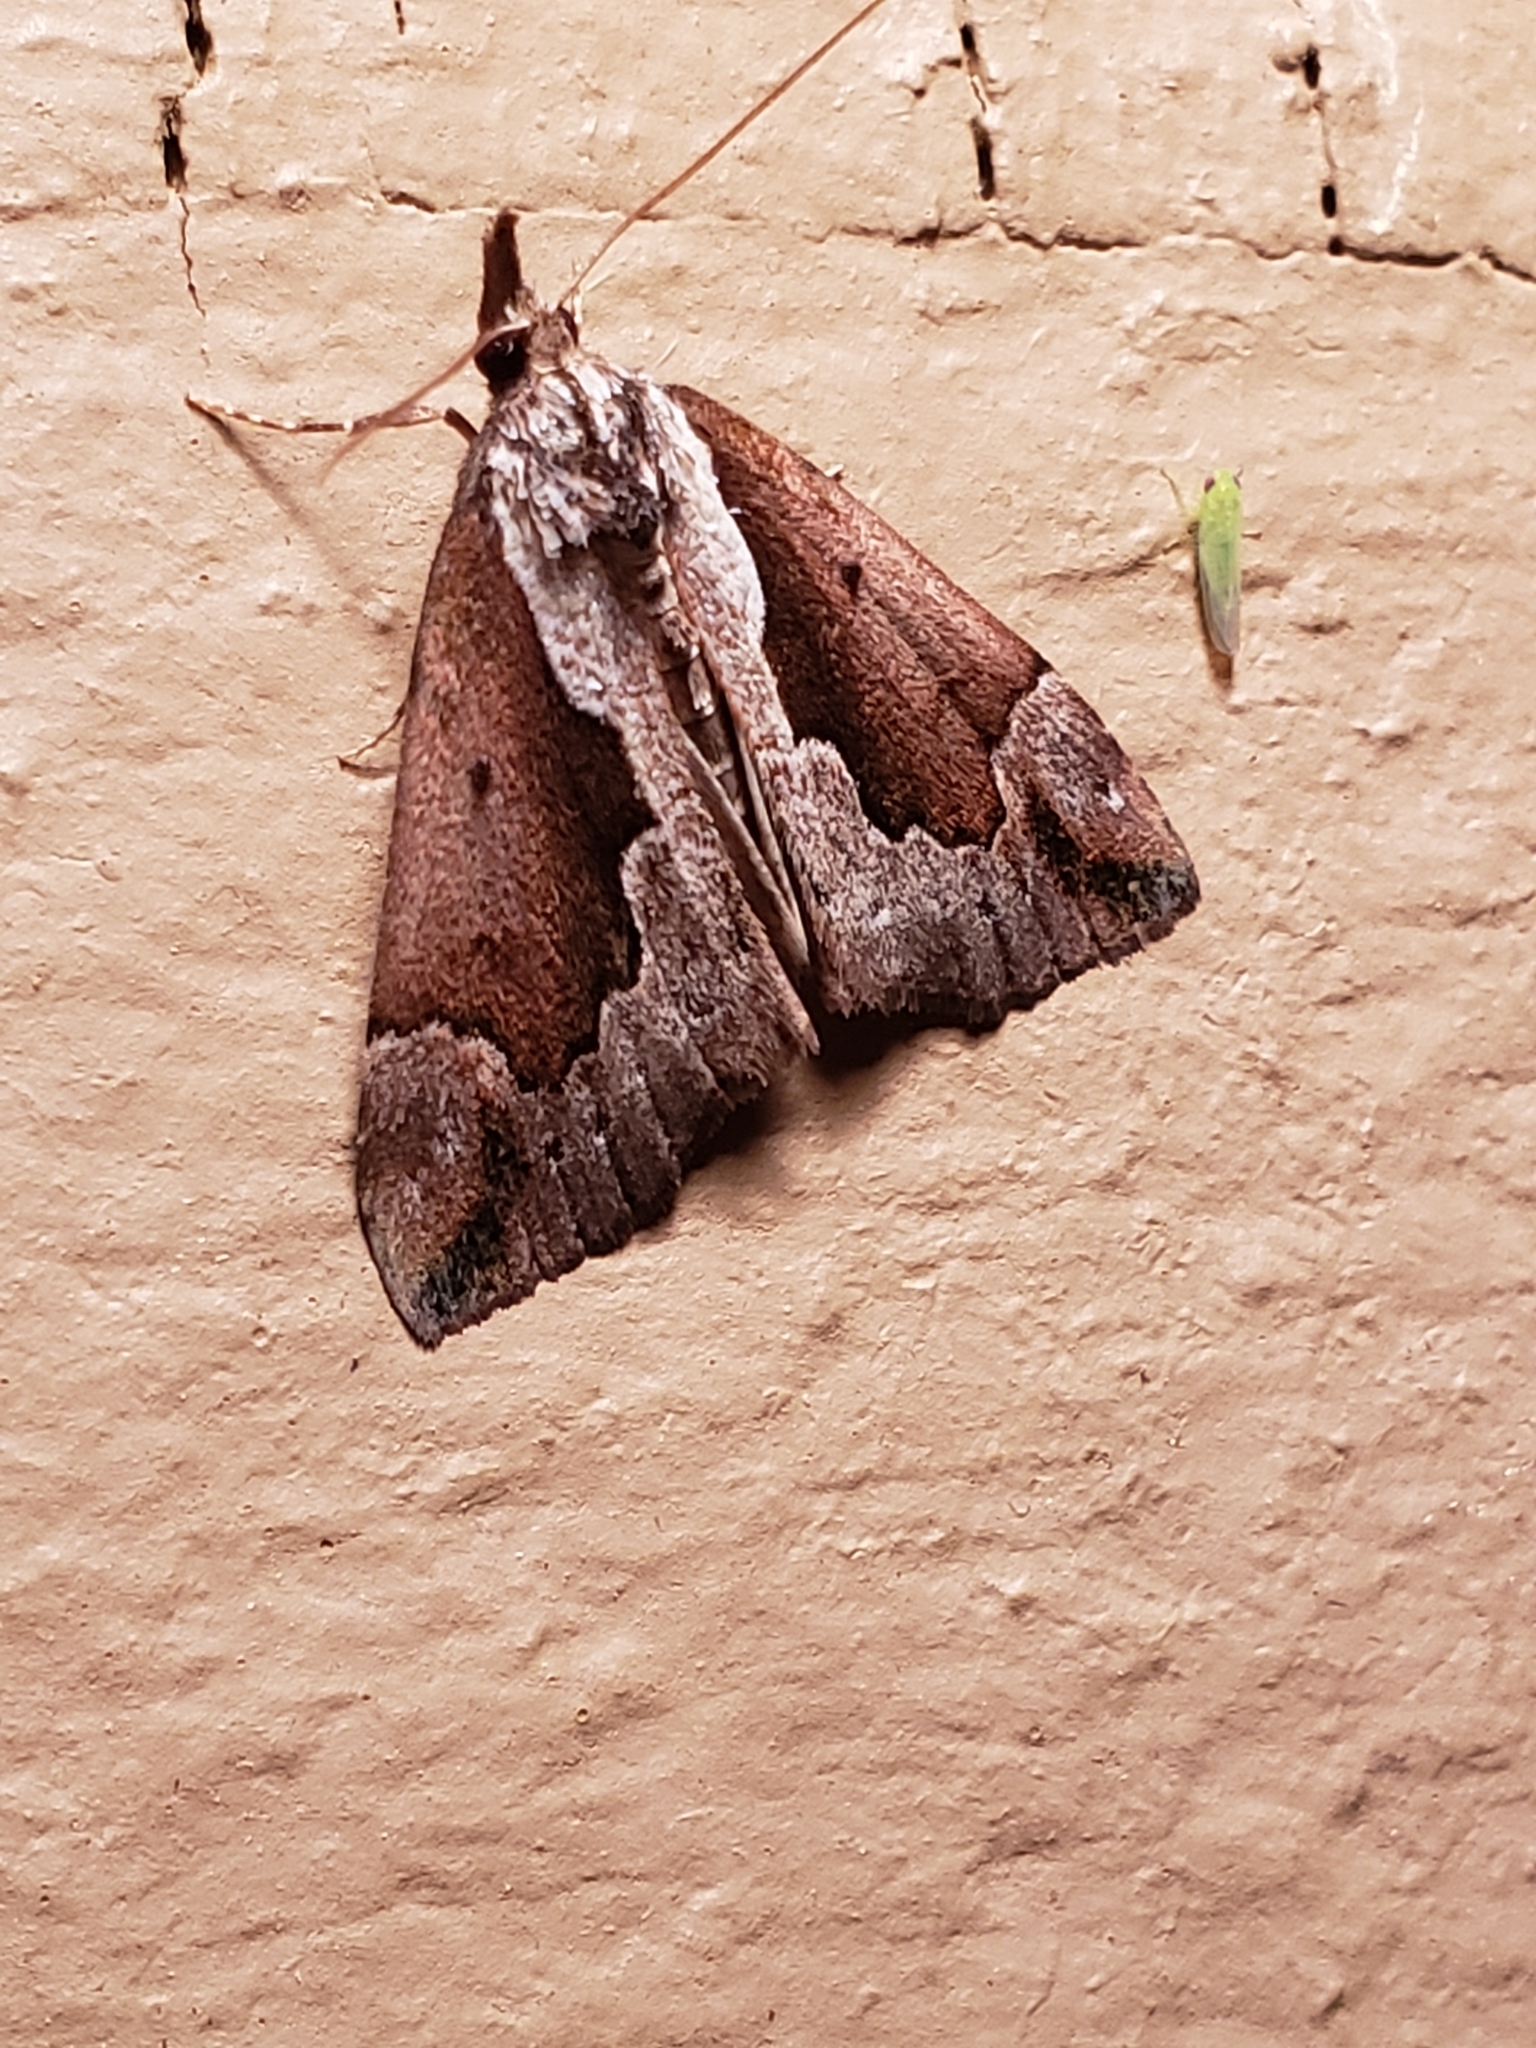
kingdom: Animalia
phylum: Arthropoda
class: Insecta
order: Lepidoptera
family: Erebidae
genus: Hypena
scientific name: Hypena baltimoralis
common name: Baltimore snout
